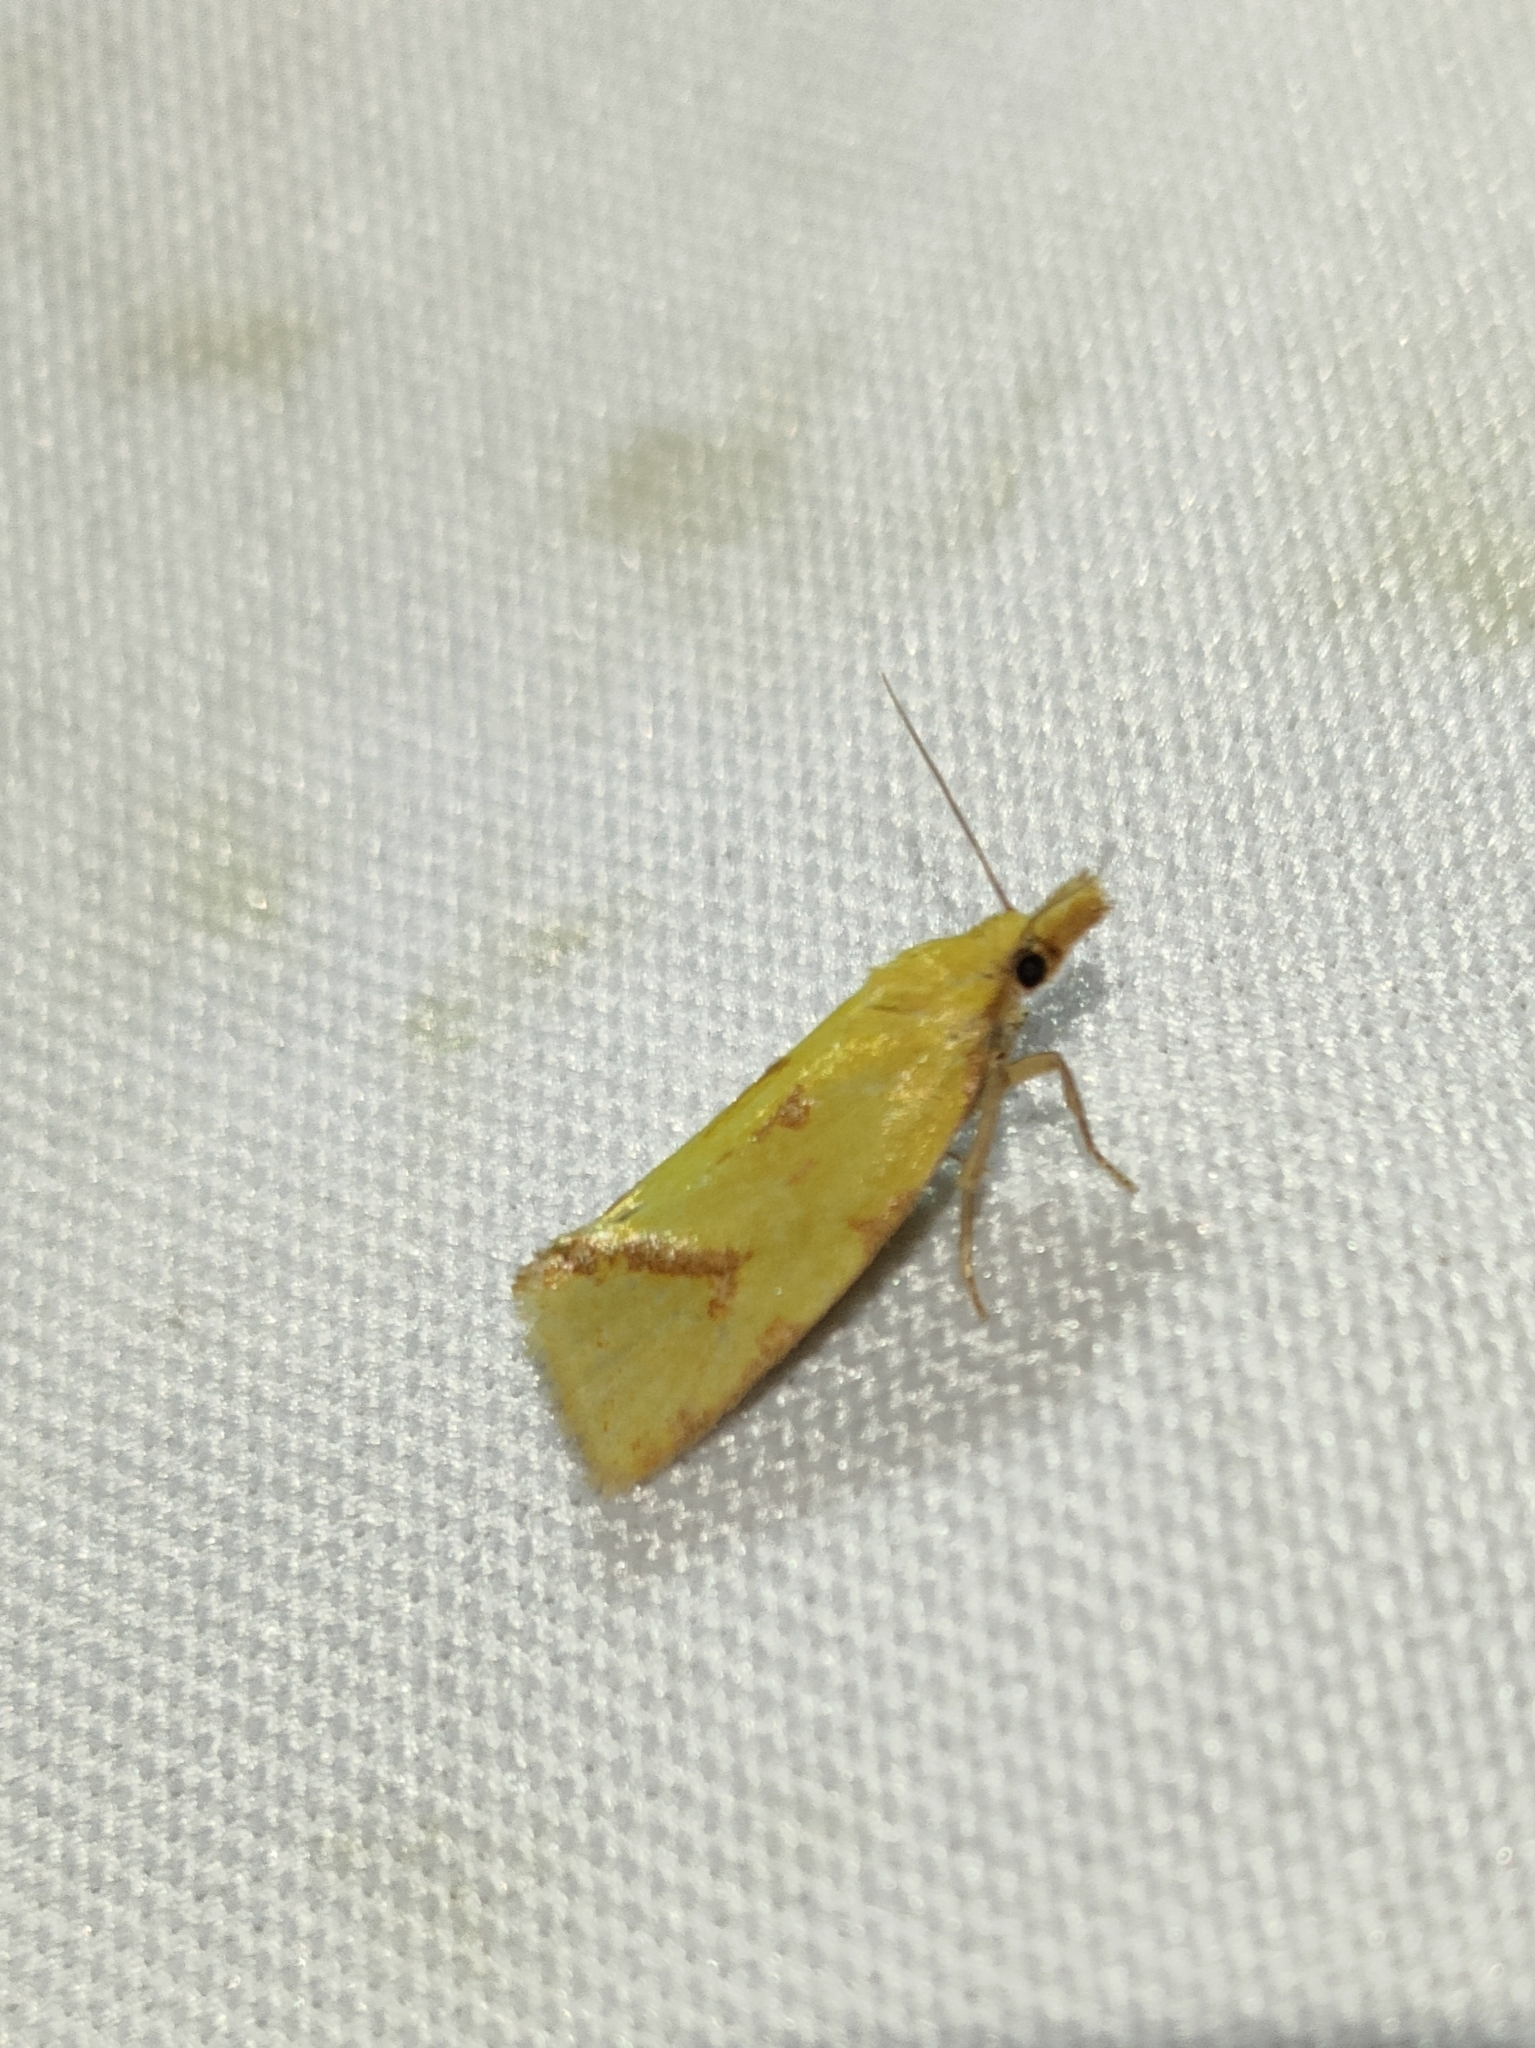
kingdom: Animalia
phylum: Arthropoda
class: Insecta
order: Lepidoptera
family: Tortricidae
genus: Agapeta
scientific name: Agapeta hamana
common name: Common yellow conch
